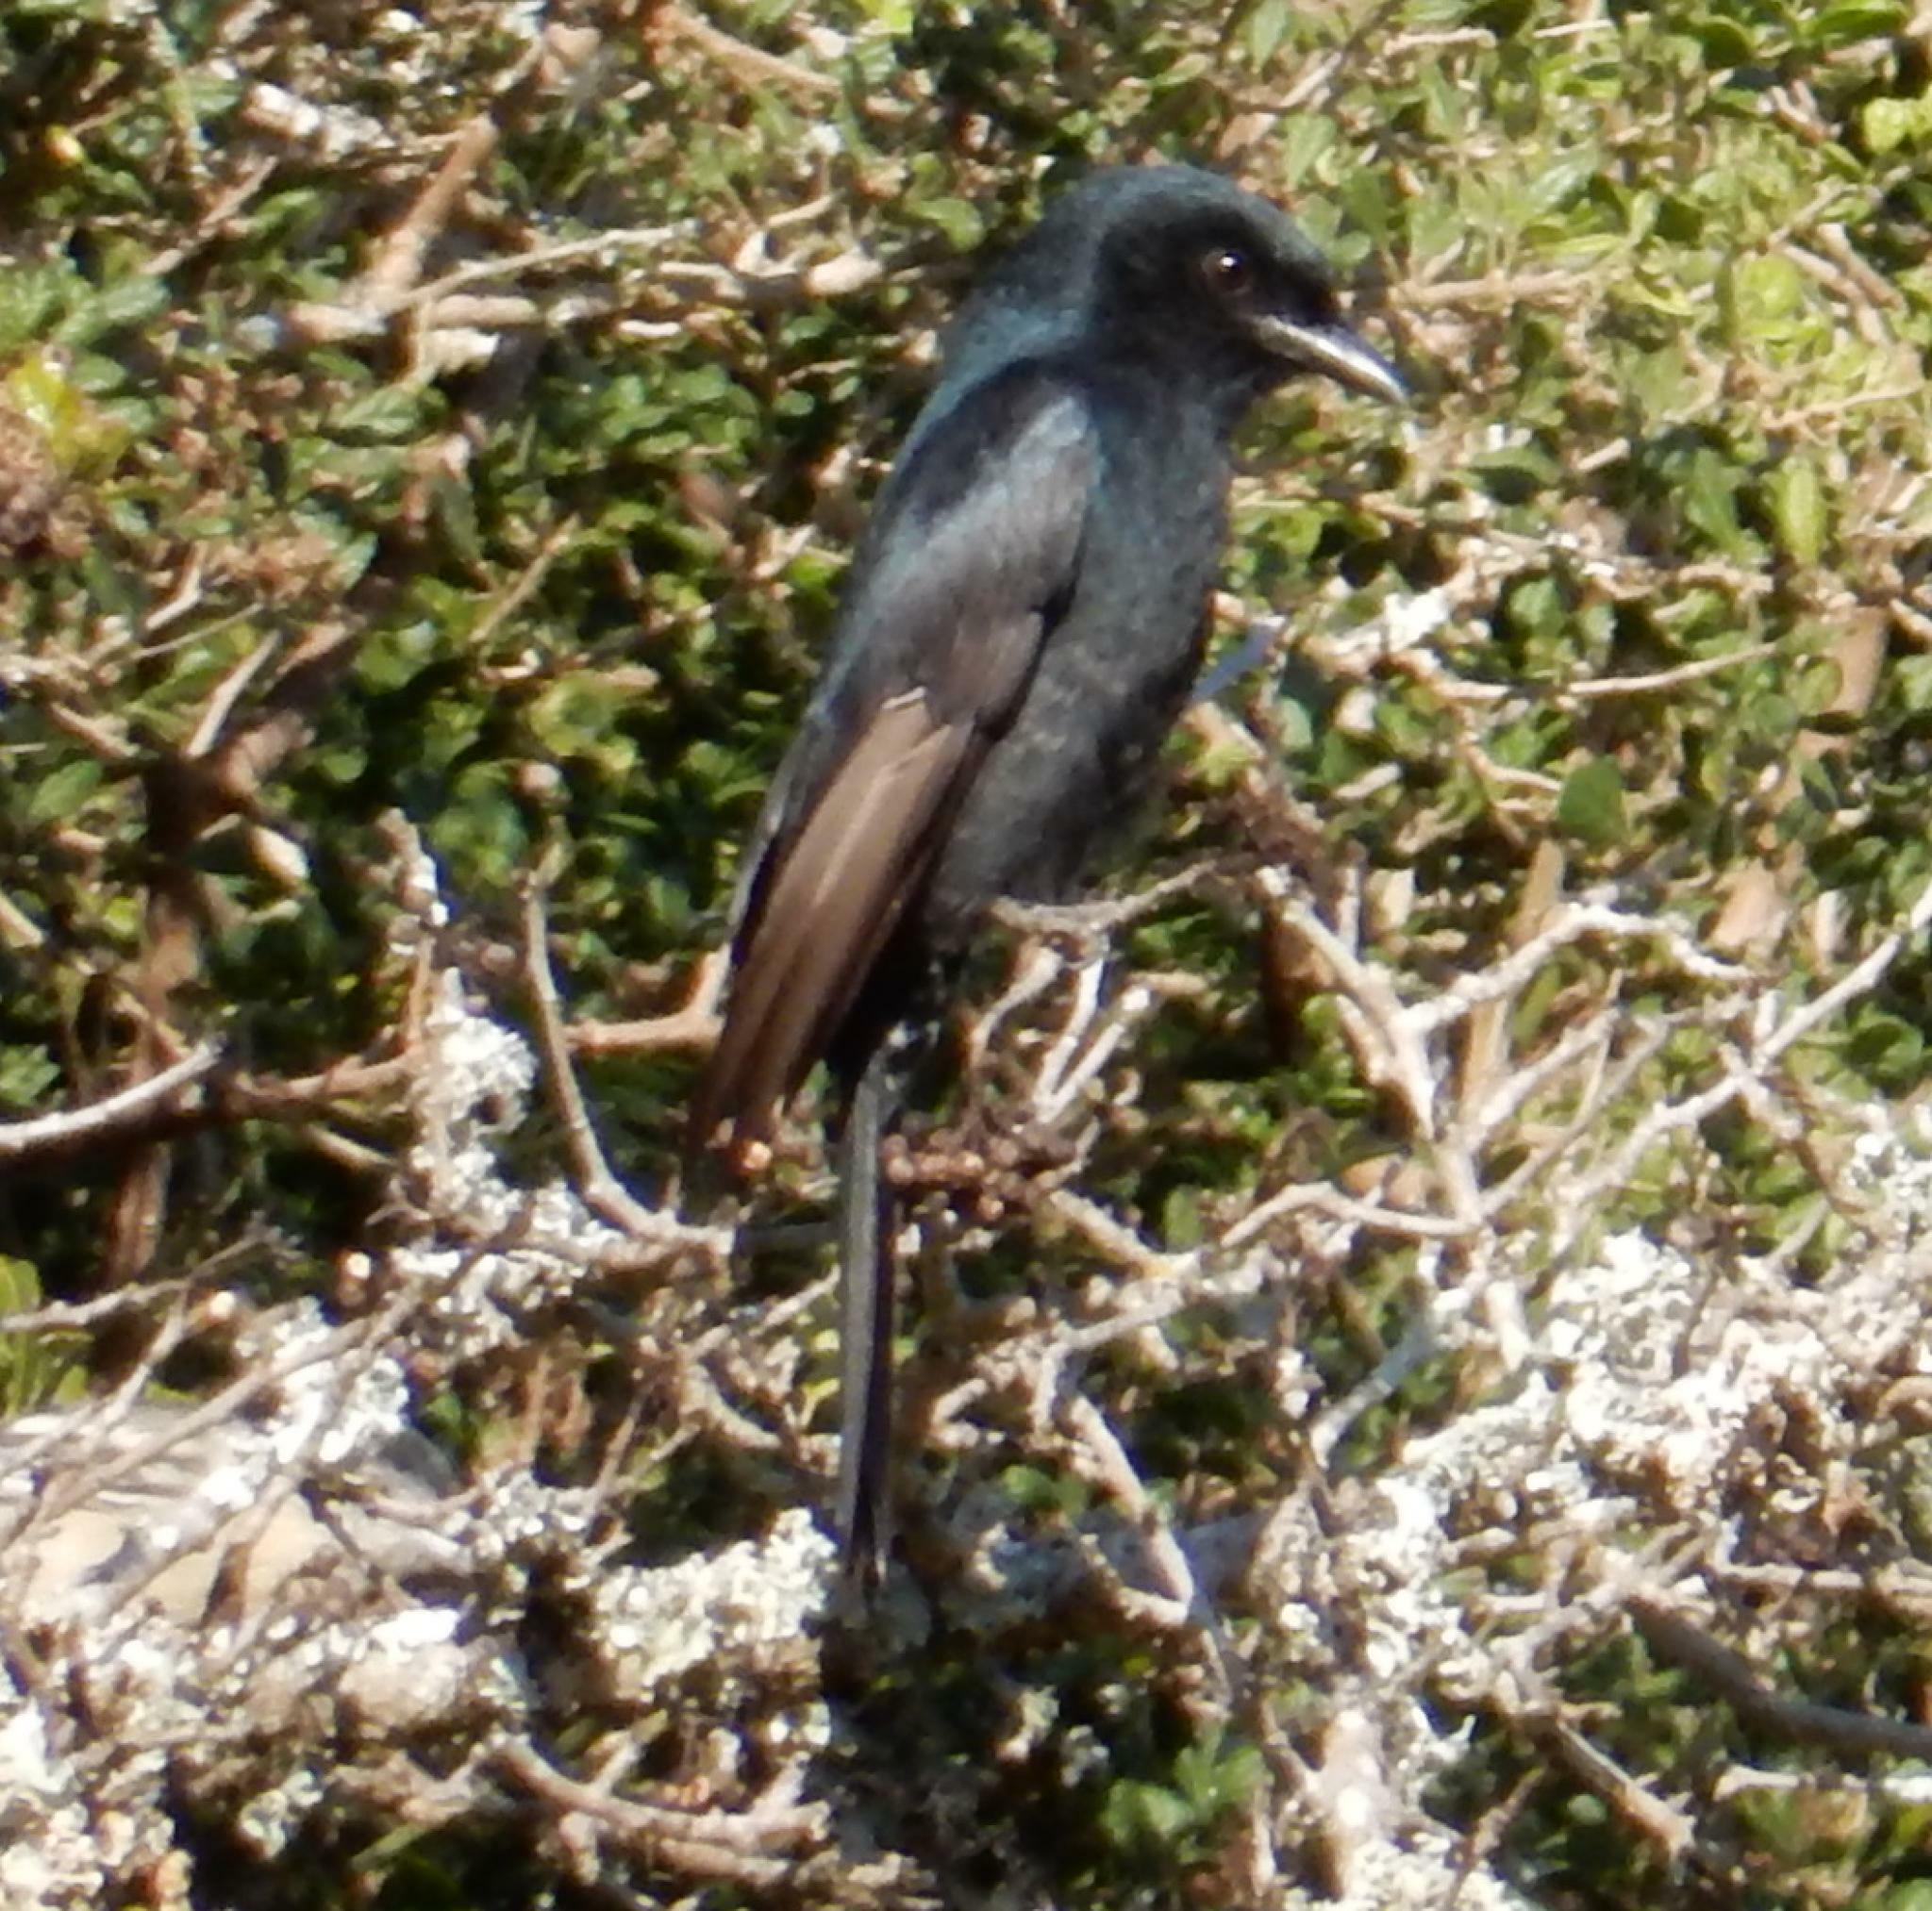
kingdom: Animalia
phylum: Chordata
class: Aves
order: Passeriformes
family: Dicruridae
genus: Dicrurus
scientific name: Dicrurus adsimilis
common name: Fork-tailed drongo
